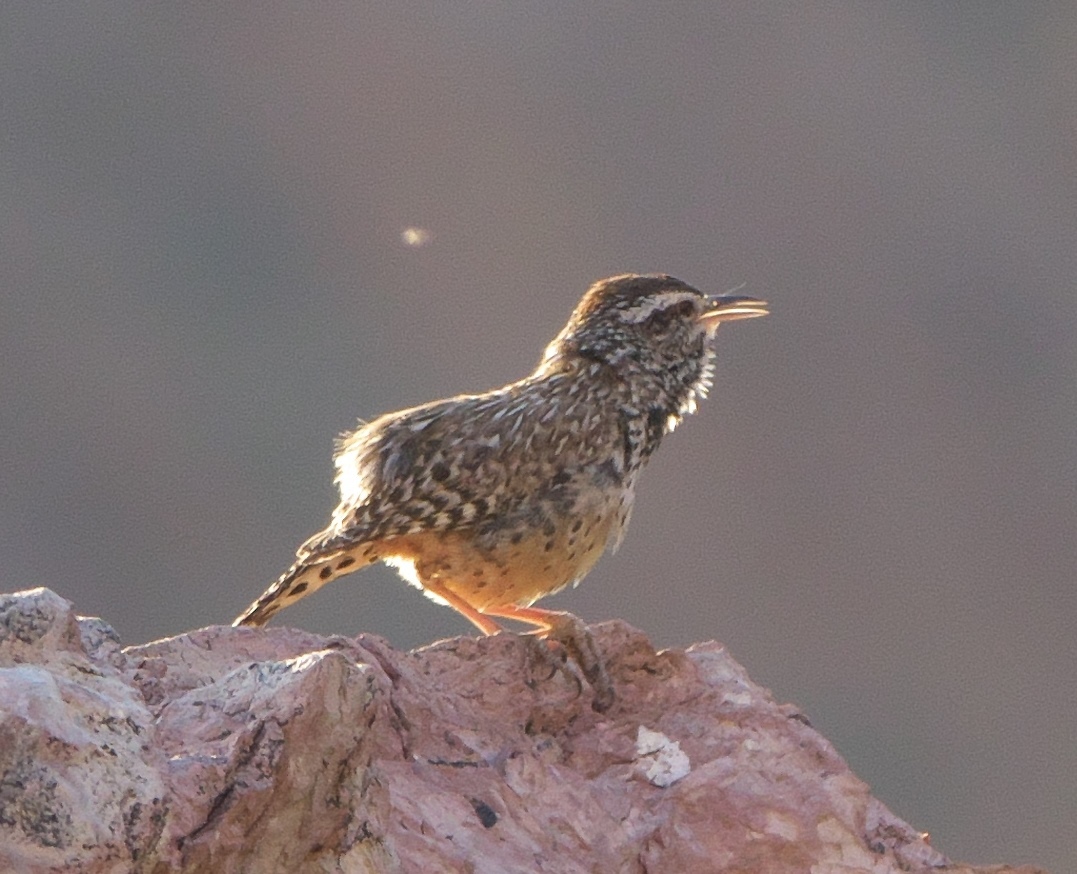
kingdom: Animalia
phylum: Chordata
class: Aves
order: Passeriformes
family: Troglodytidae
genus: Campylorhynchus
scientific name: Campylorhynchus brunneicapillus
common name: Cactus wren
